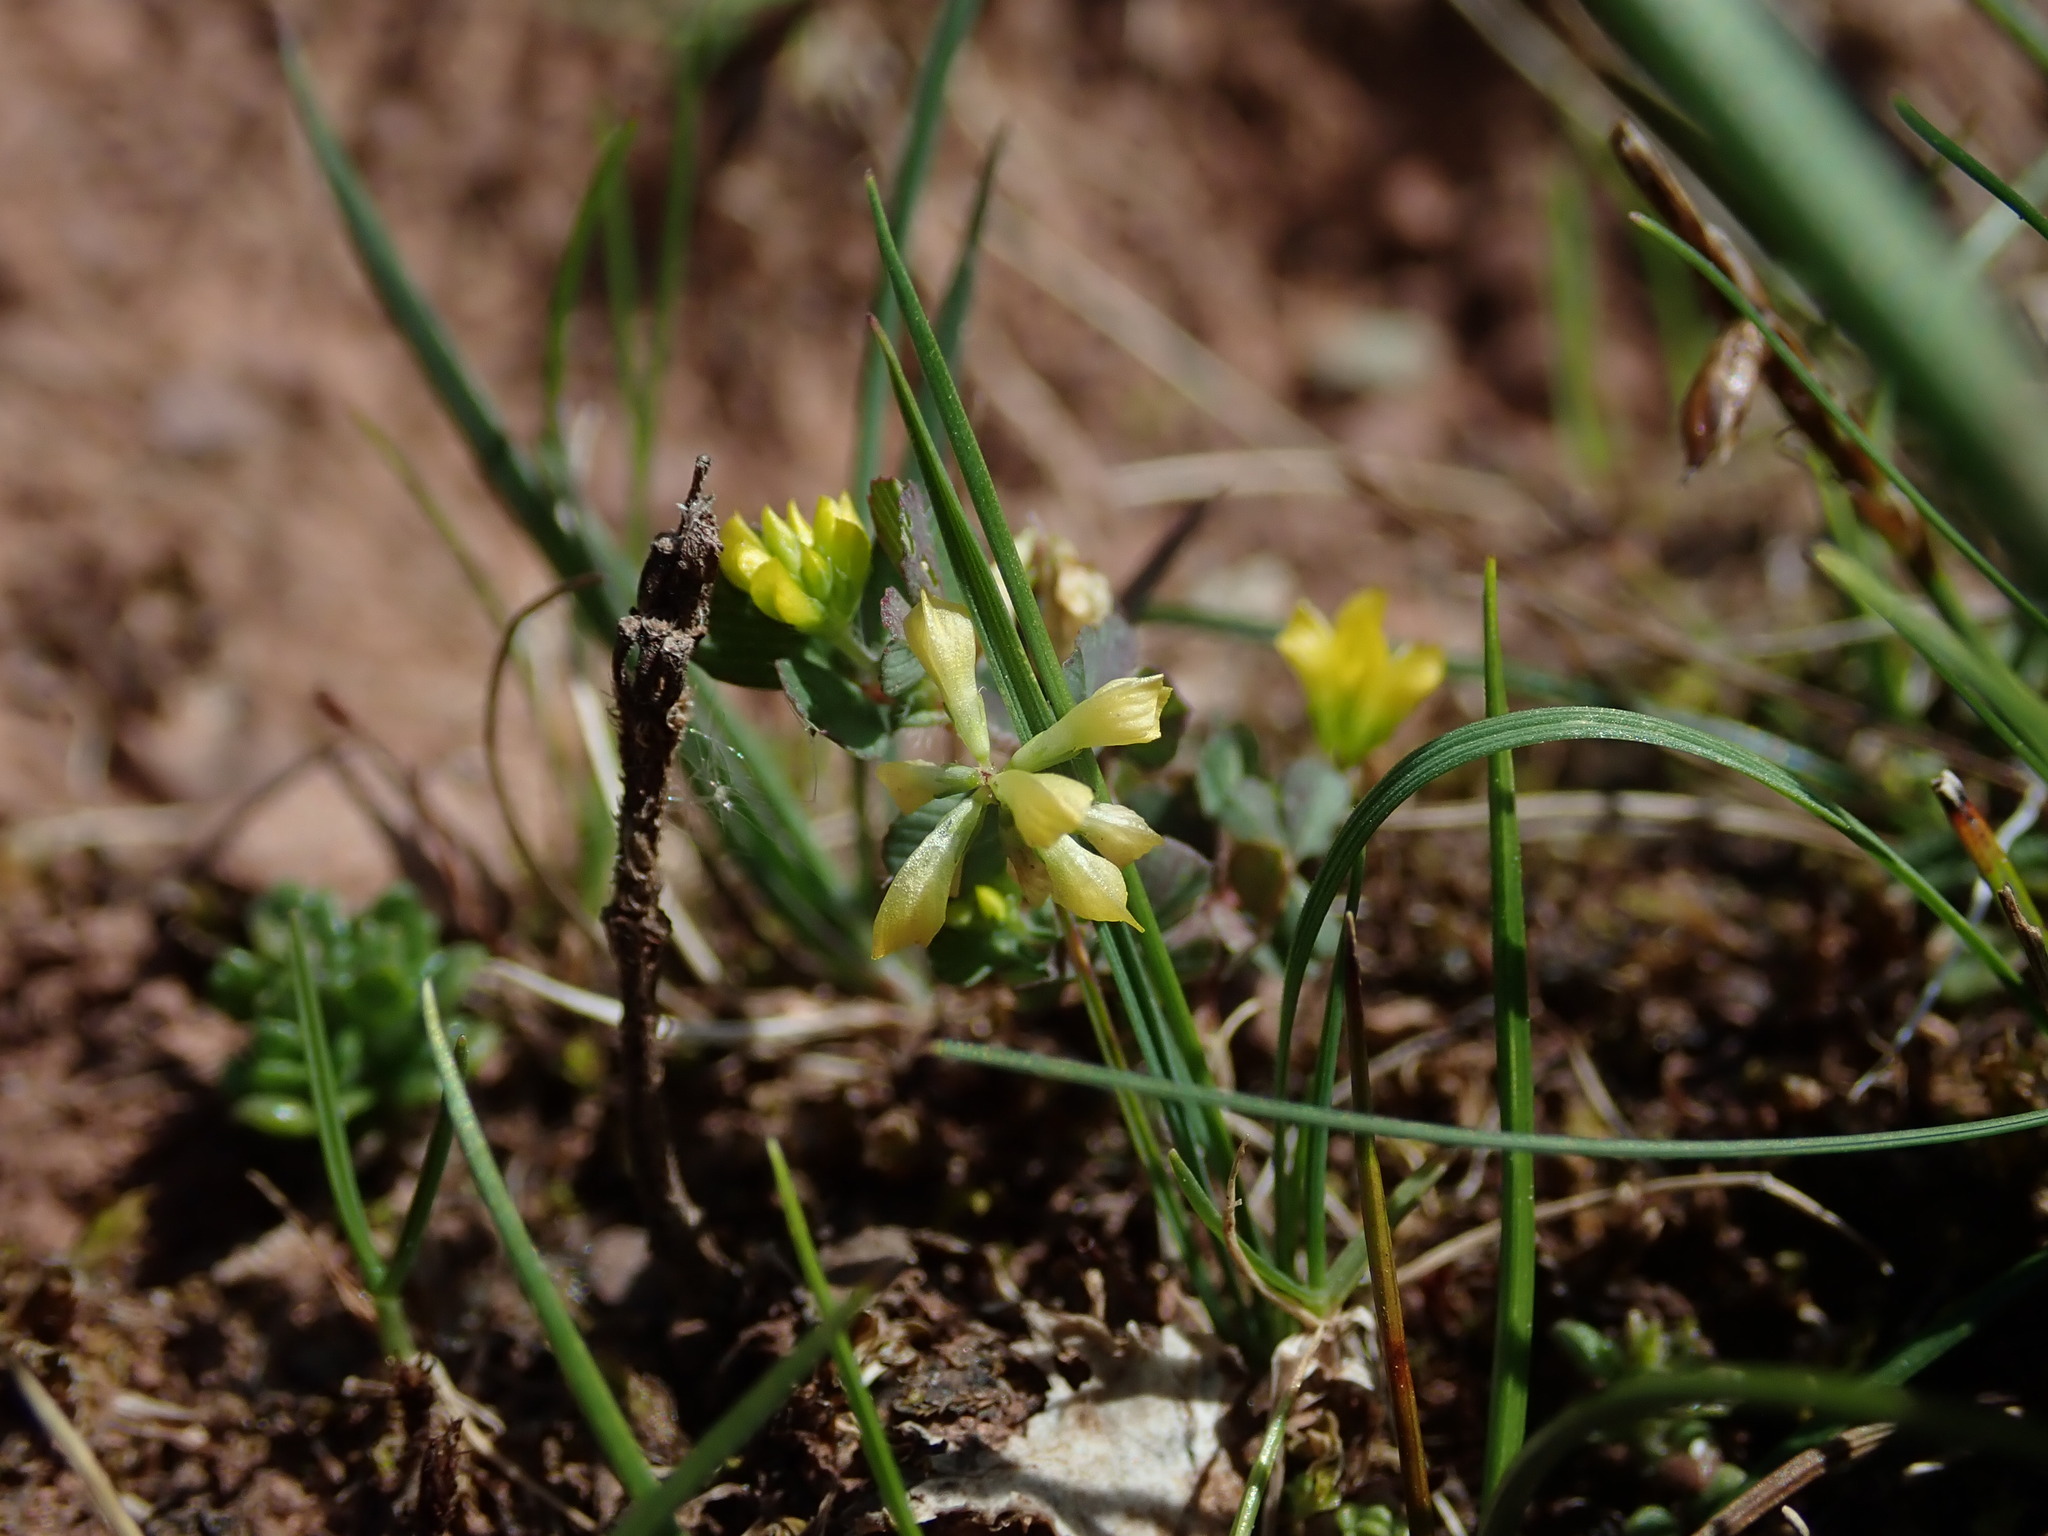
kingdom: Plantae
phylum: Tracheophyta
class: Magnoliopsida
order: Fabales
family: Fabaceae
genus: Trifolium
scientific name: Trifolium dubium
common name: Suckling clover
